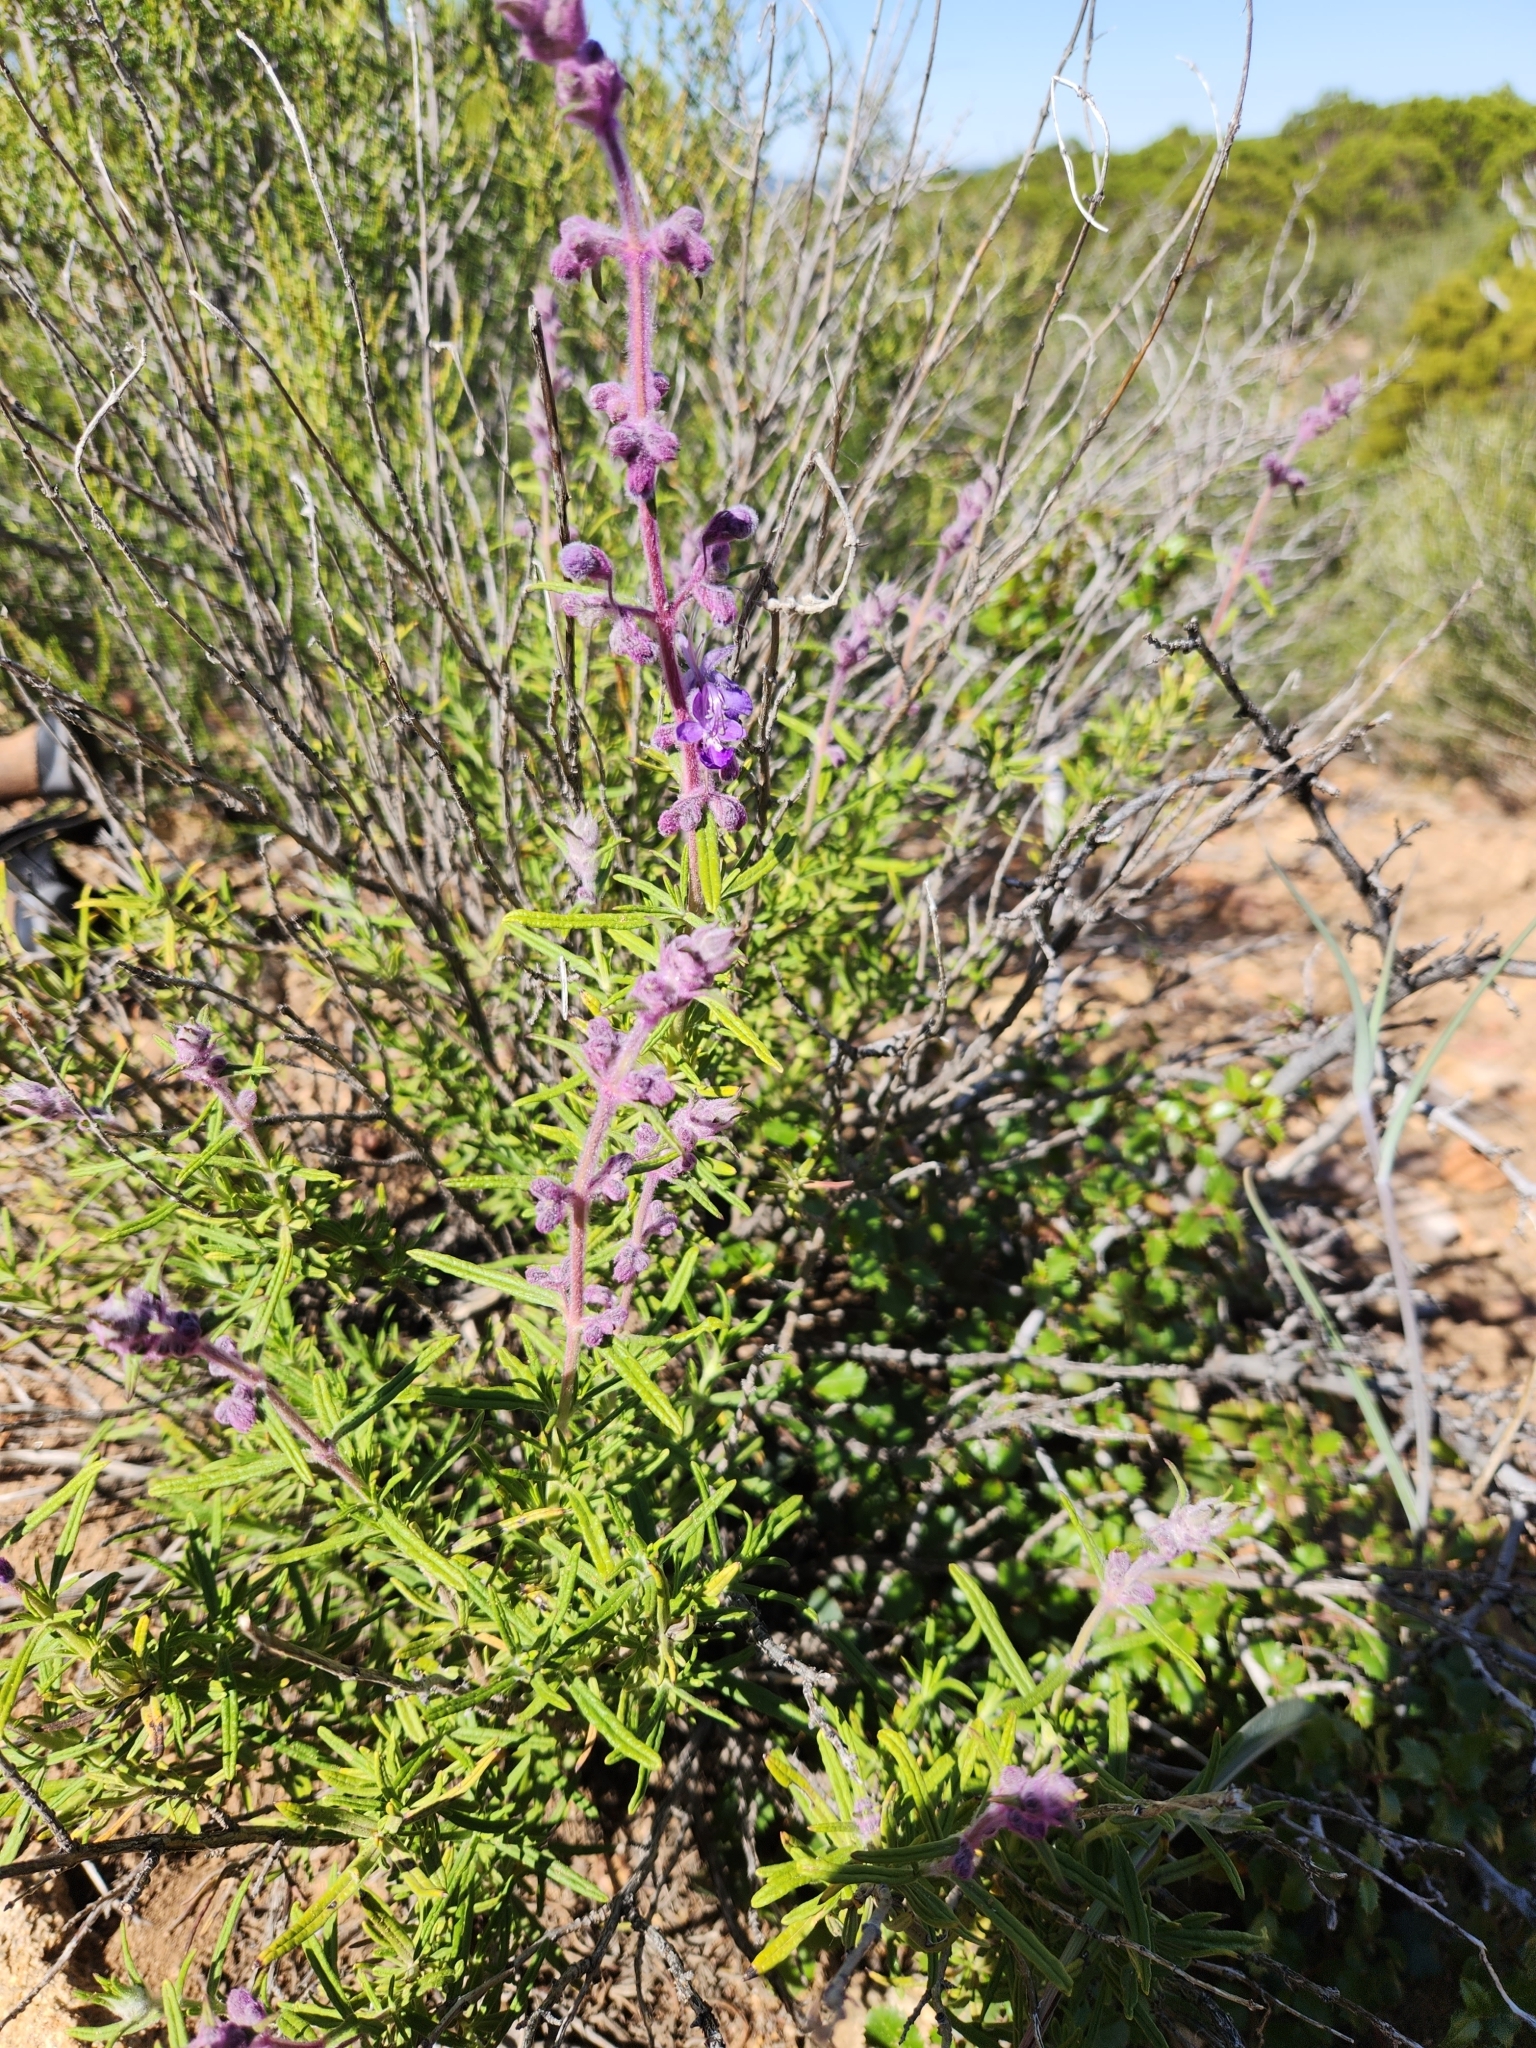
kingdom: Plantae
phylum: Tracheophyta
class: Magnoliopsida
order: Lamiales
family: Lamiaceae
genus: Trichostema
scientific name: Trichostema parishii
